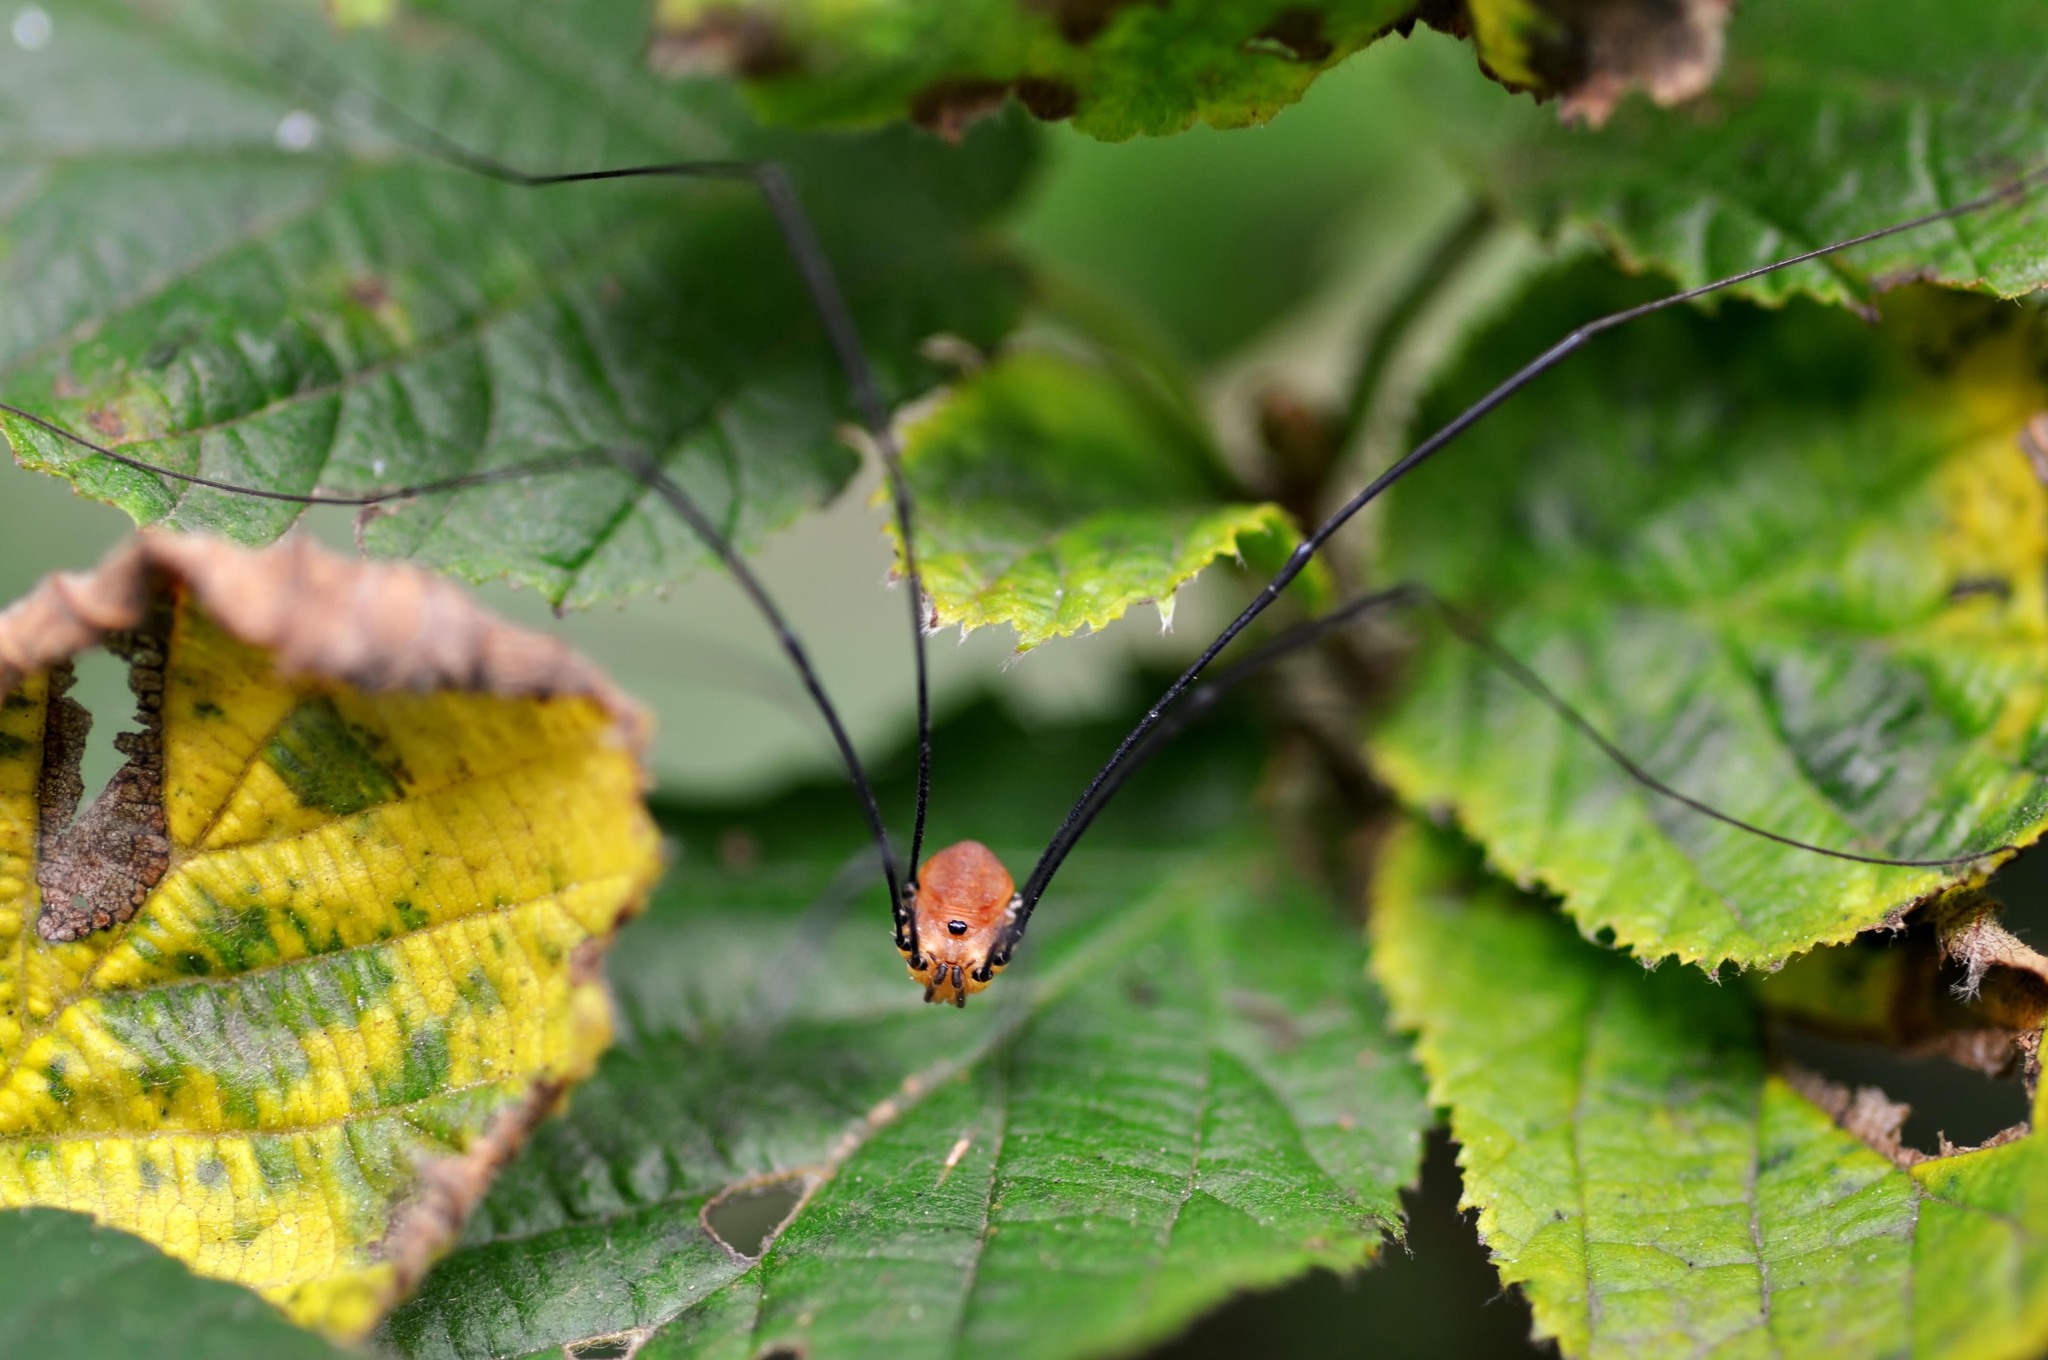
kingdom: Animalia
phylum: Arthropoda
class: Arachnida
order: Opiliones
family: Sclerosomatidae
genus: Leiobunum
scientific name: Leiobunum rotundum
